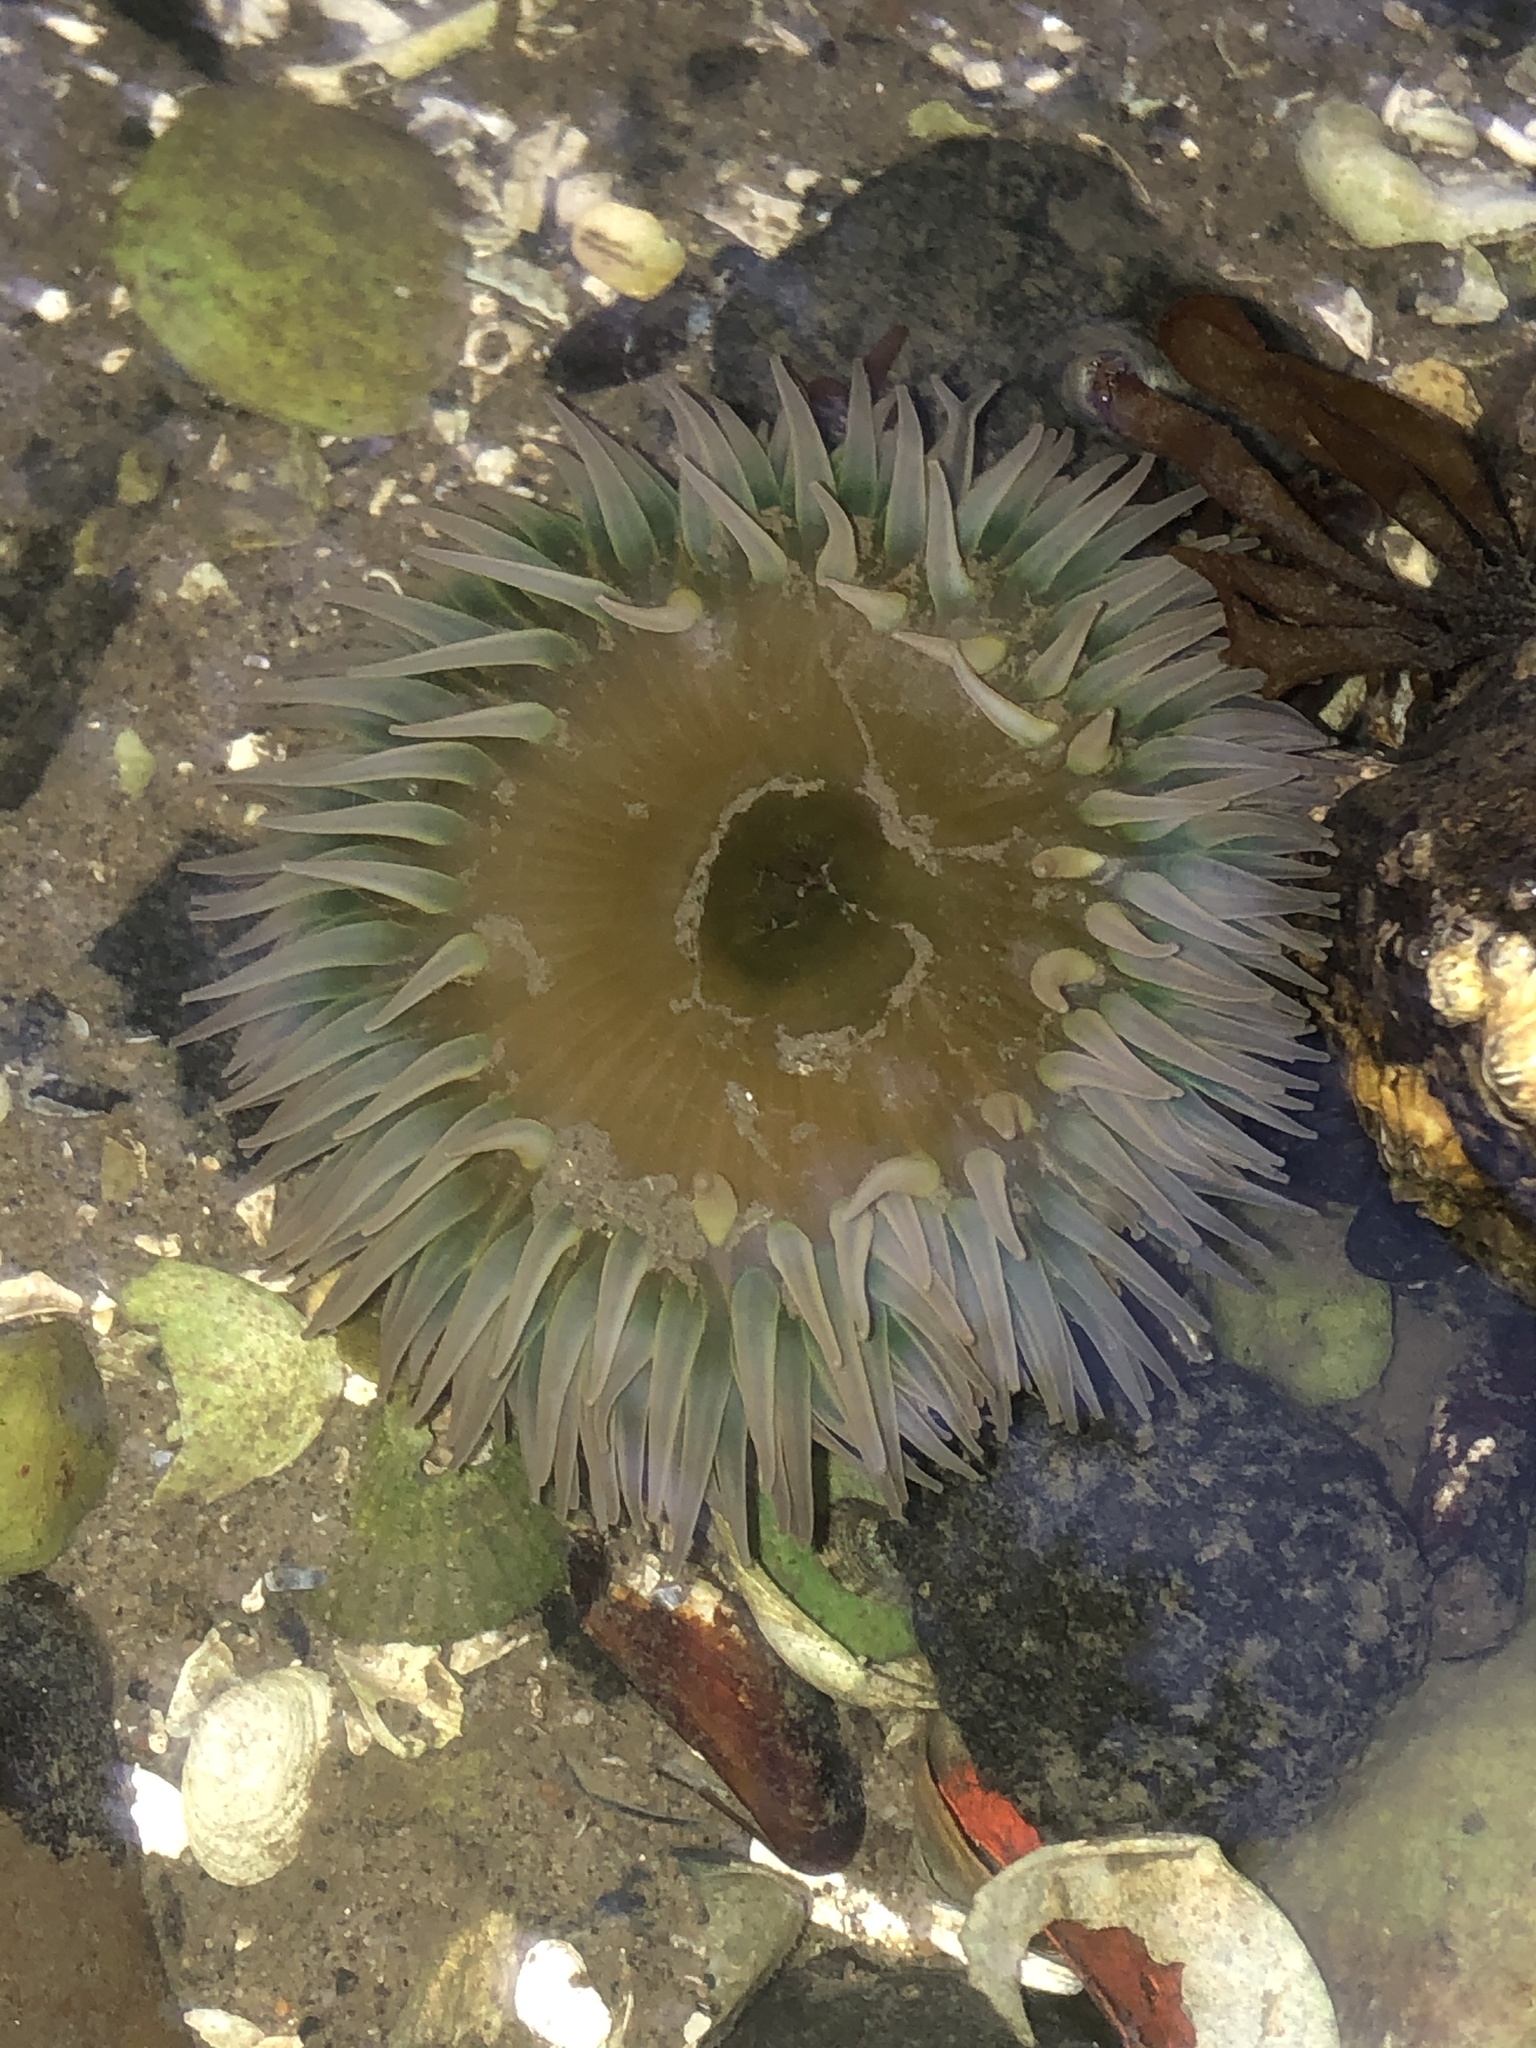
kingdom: Animalia
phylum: Cnidaria
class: Anthozoa
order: Actiniaria
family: Actiniidae
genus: Anthopleura
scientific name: Anthopleura xanthogrammica
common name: Giant green anemone
